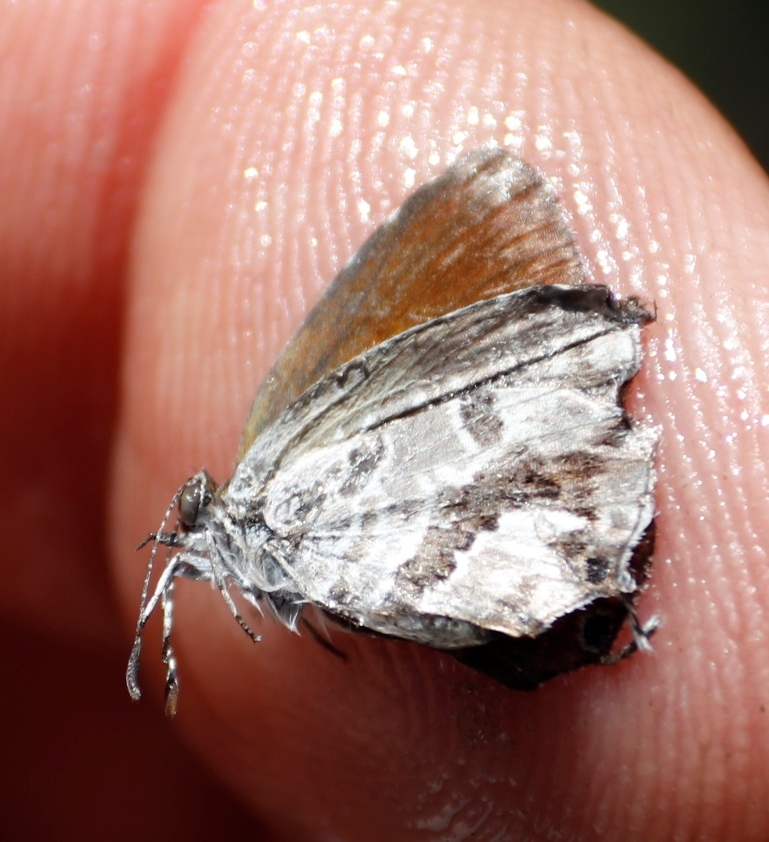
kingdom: Animalia
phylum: Arthropoda
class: Insecta
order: Lepidoptera
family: Lycaenidae
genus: Cacyreus
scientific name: Cacyreus marshalli
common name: Geranium bronze
